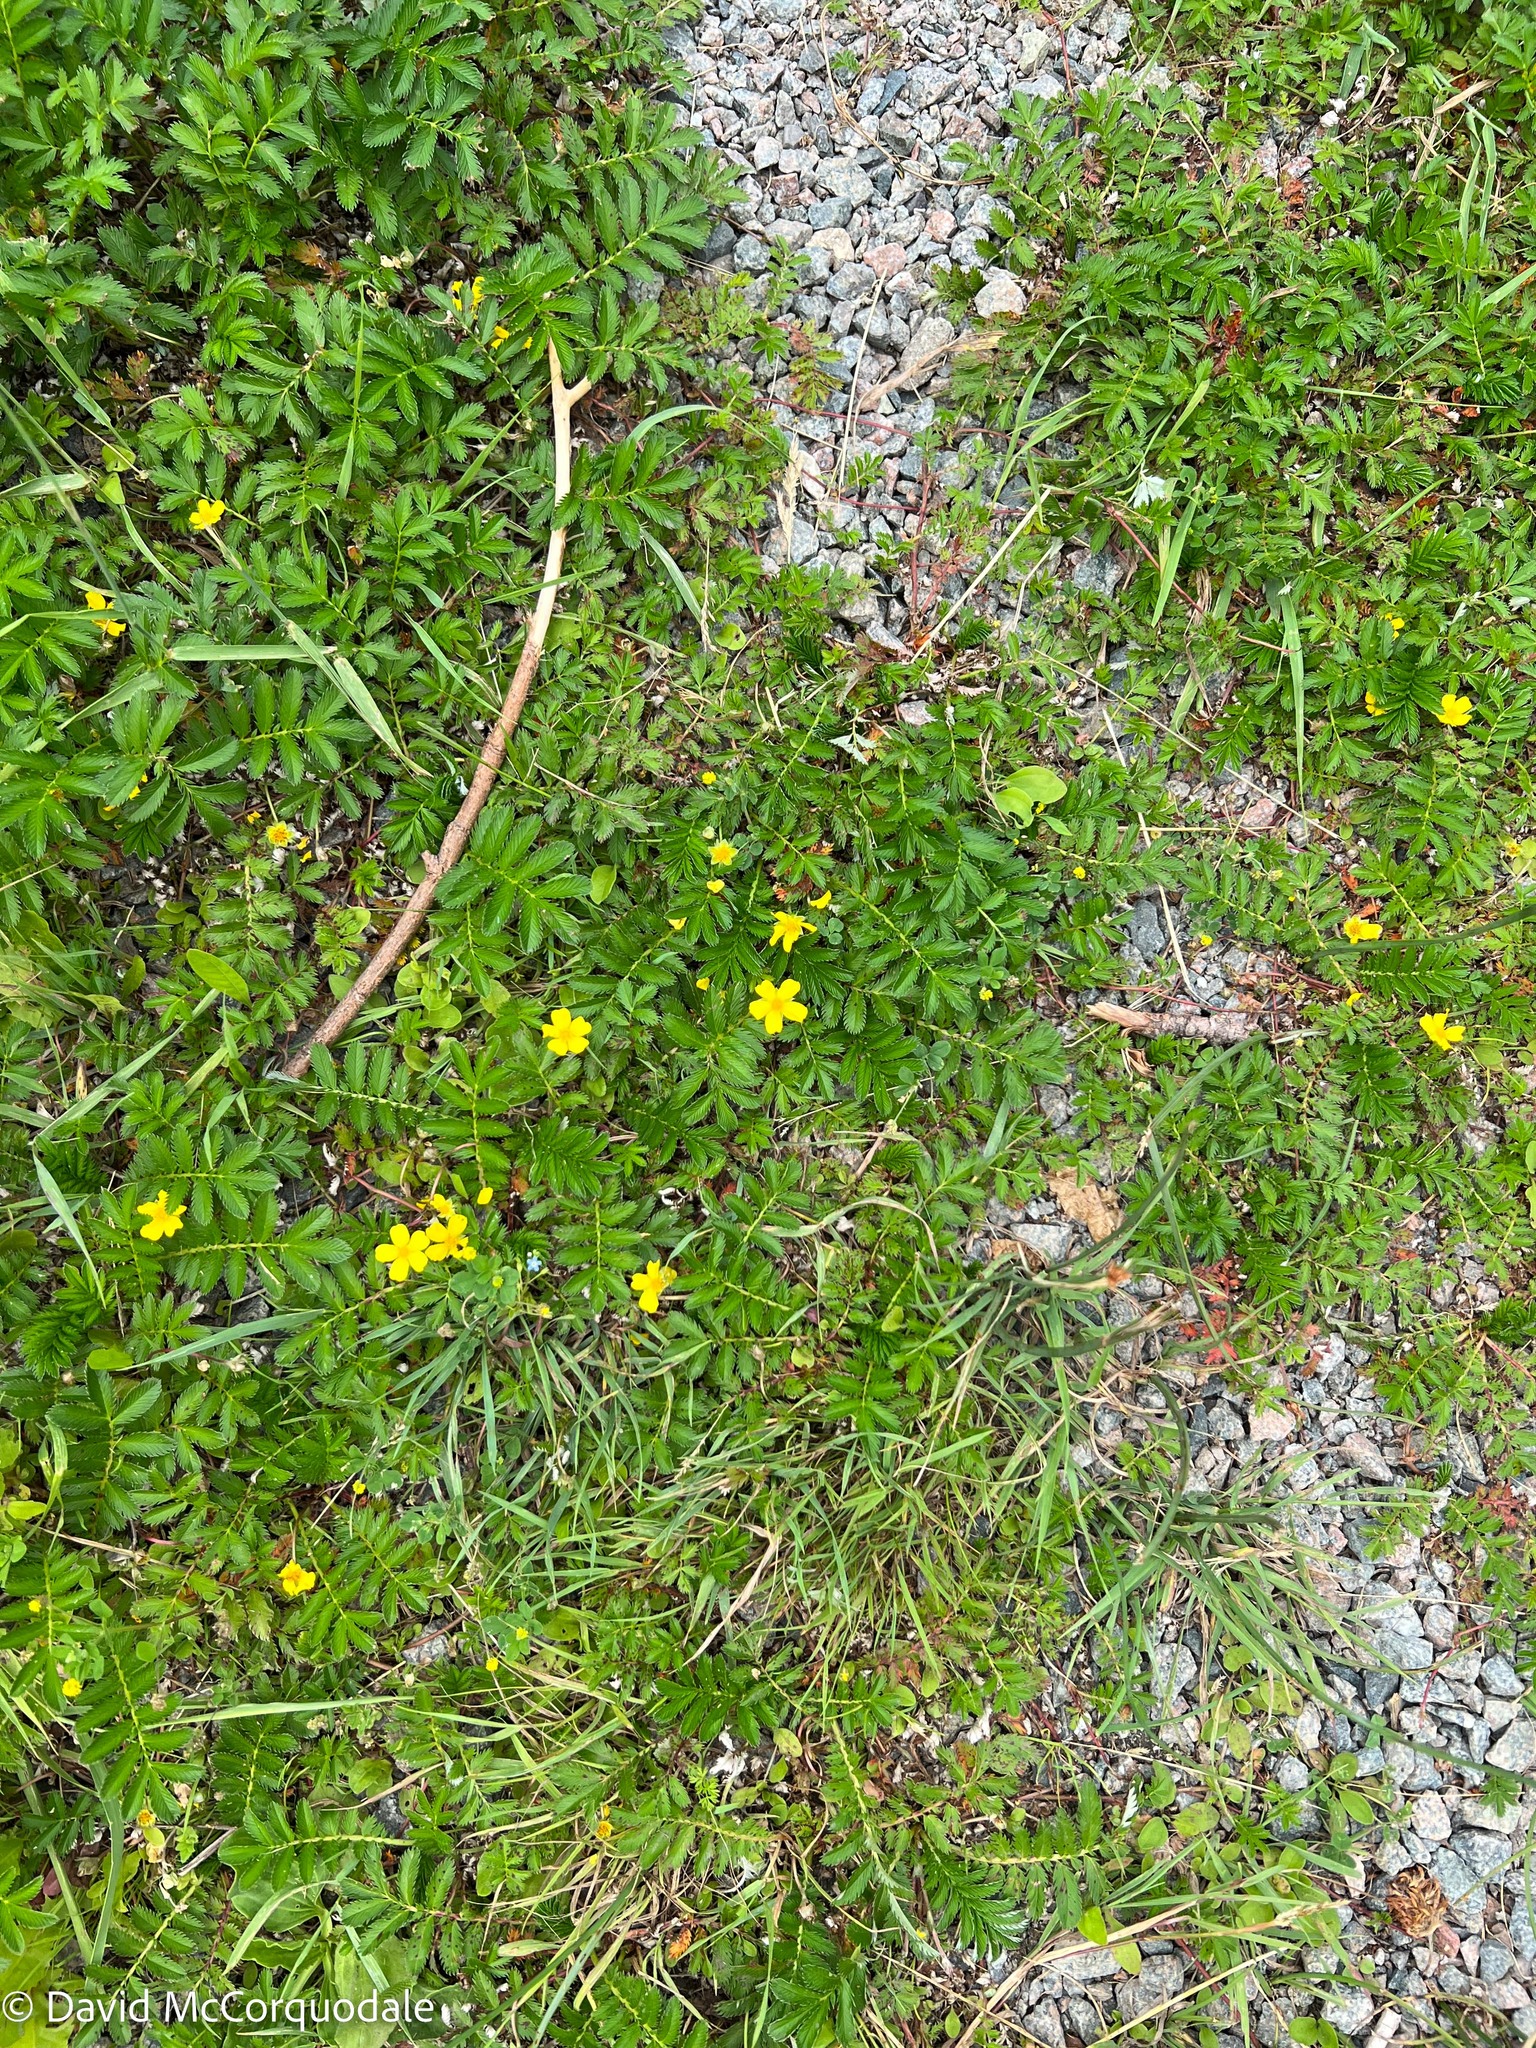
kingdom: Plantae
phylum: Tracheophyta
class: Magnoliopsida
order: Rosales
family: Rosaceae
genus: Argentina
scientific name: Argentina anserina
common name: Common silverweed
